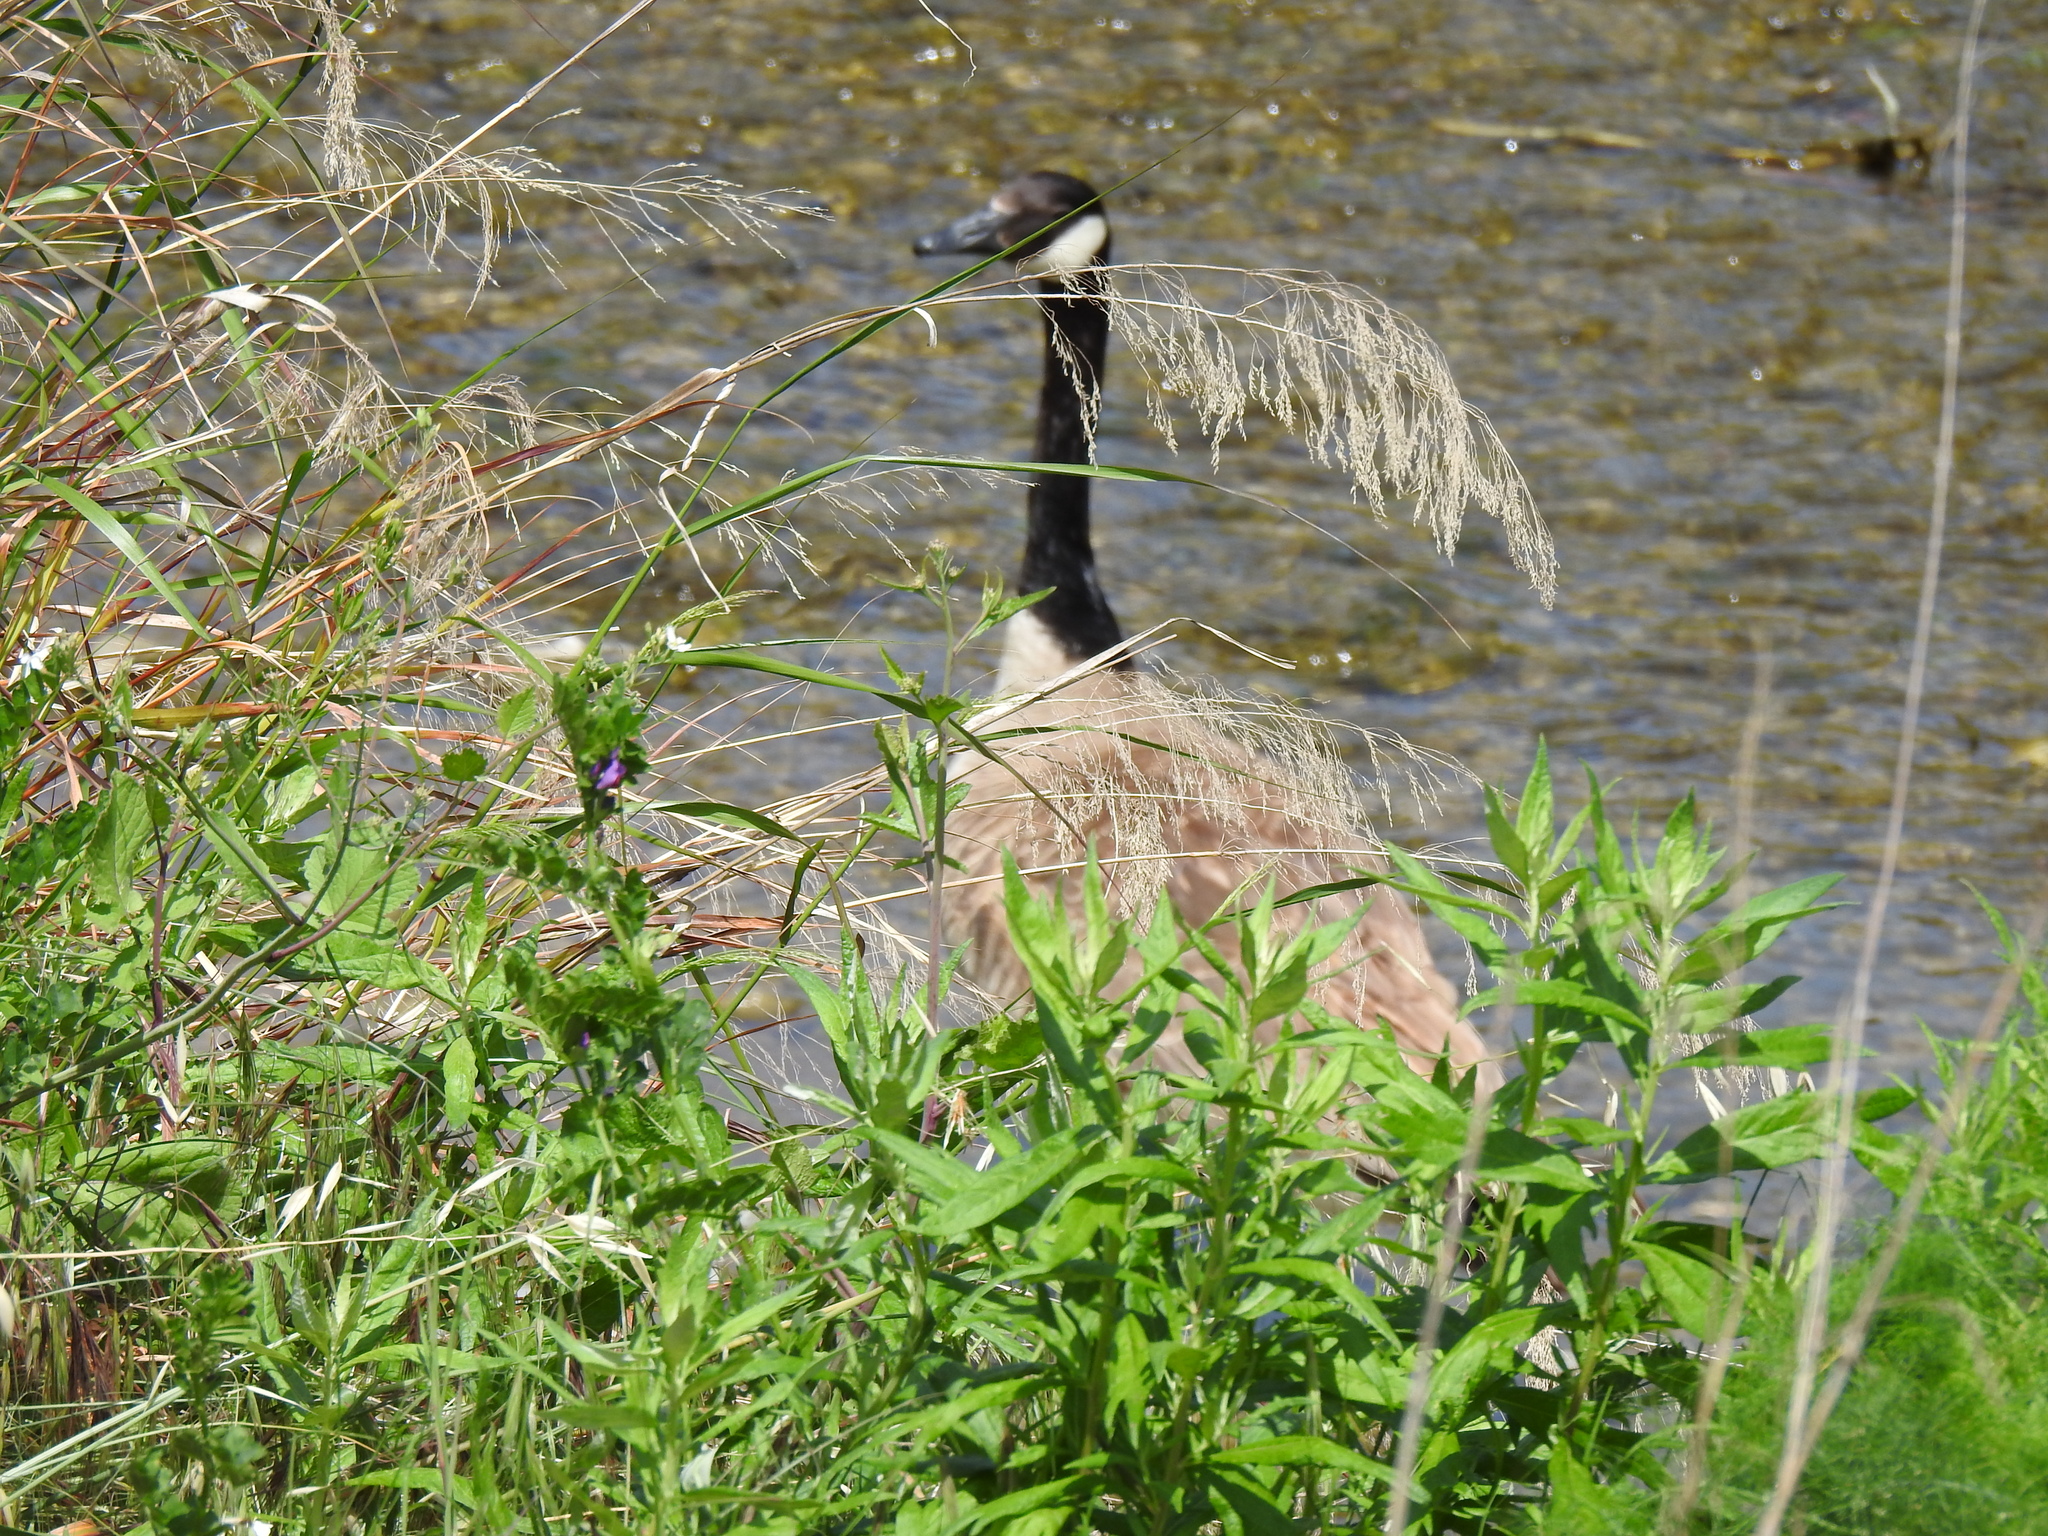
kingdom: Animalia
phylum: Chordata
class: Aves
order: Anseriformes
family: Anatidae
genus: Branta
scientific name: Branta canadensis
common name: Canada goose
